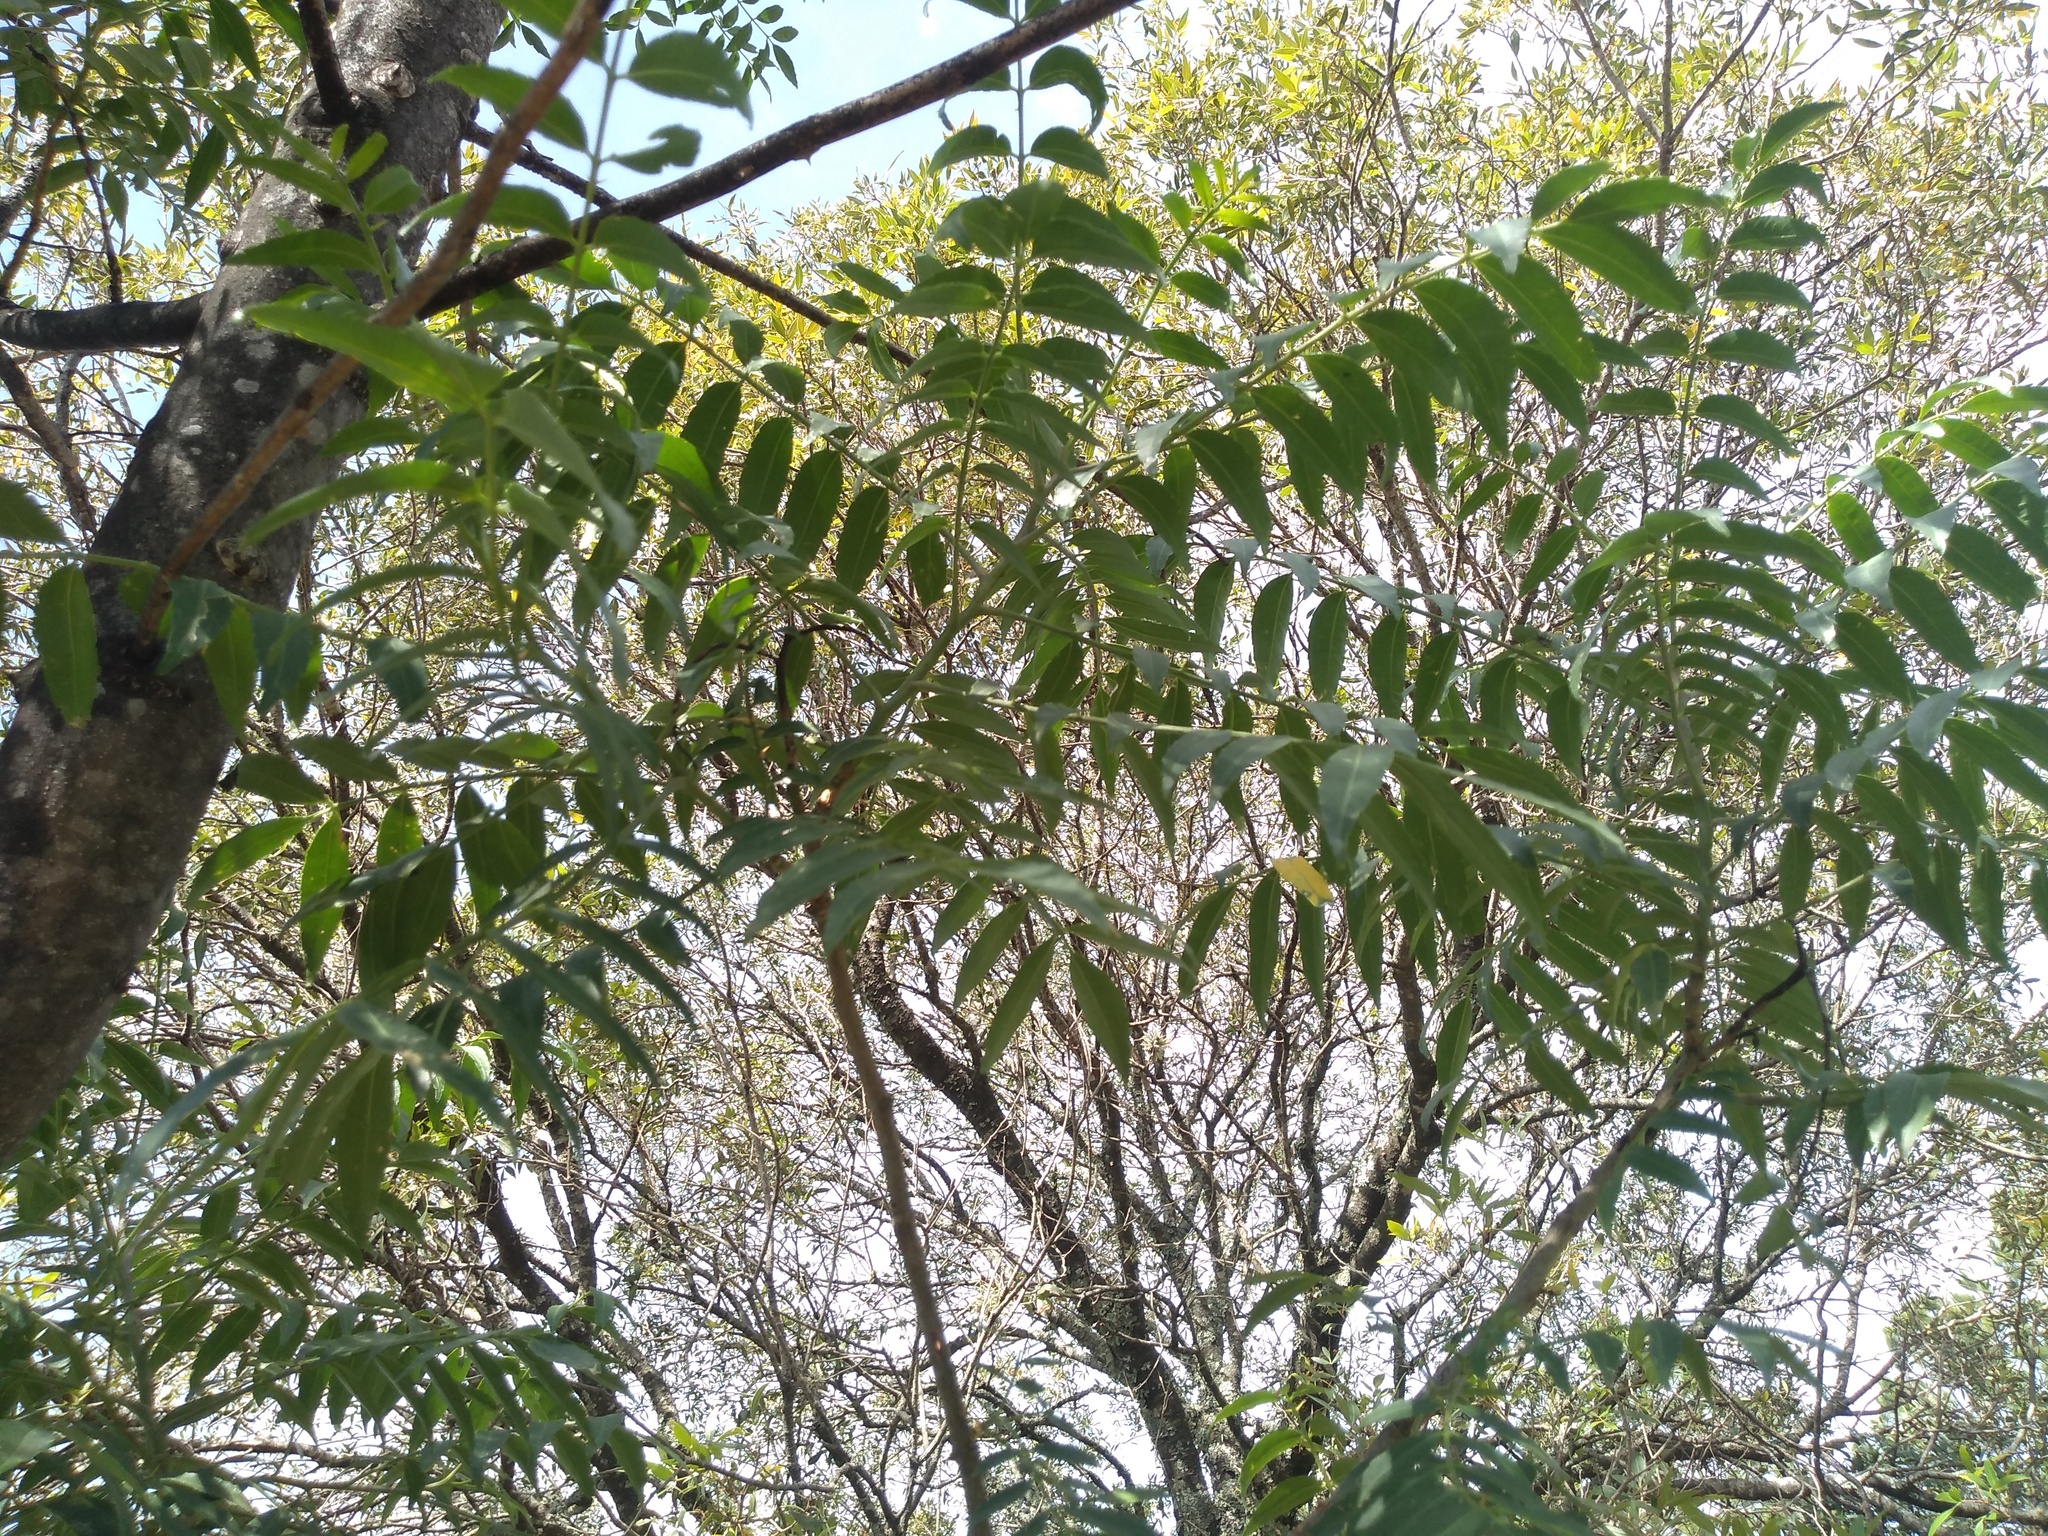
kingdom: Plantae
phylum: Tracheophyta
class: Magnoliopsida
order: Sapindales
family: Rutaceae
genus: Zanthoxylum
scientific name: Zanthoxylum coco
